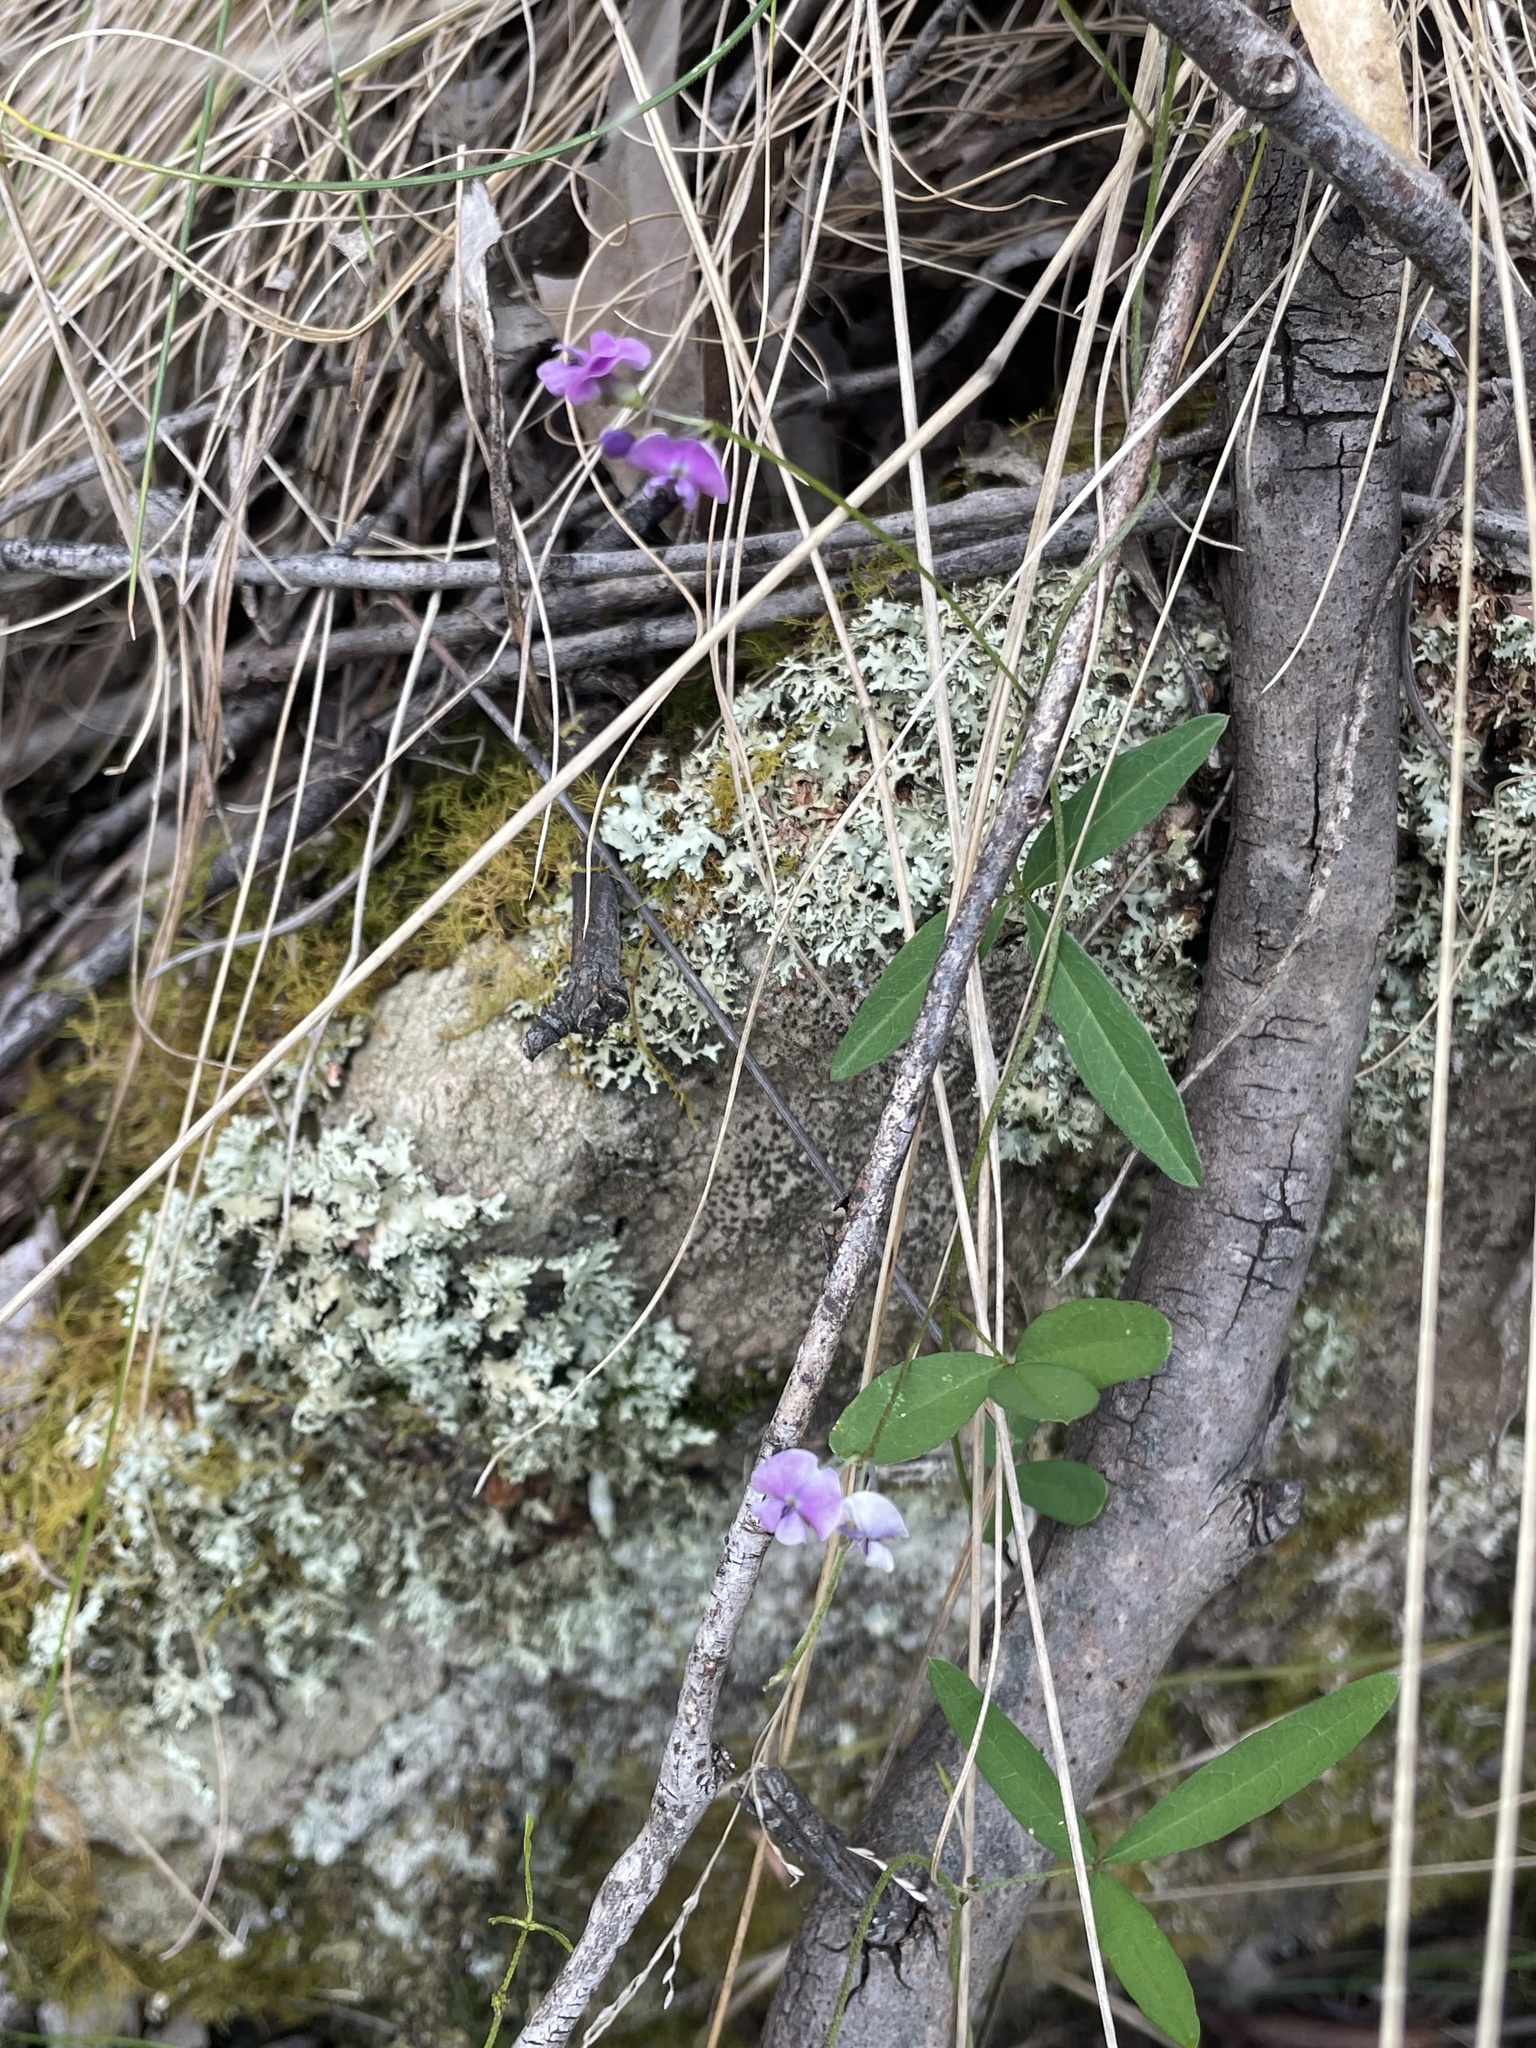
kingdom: Plantae
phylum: Tracheophyta
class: Magnoliopsida
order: Fabales
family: Fabaceae
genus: Glycine
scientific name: Glycine clandestina
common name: Twining glycine
